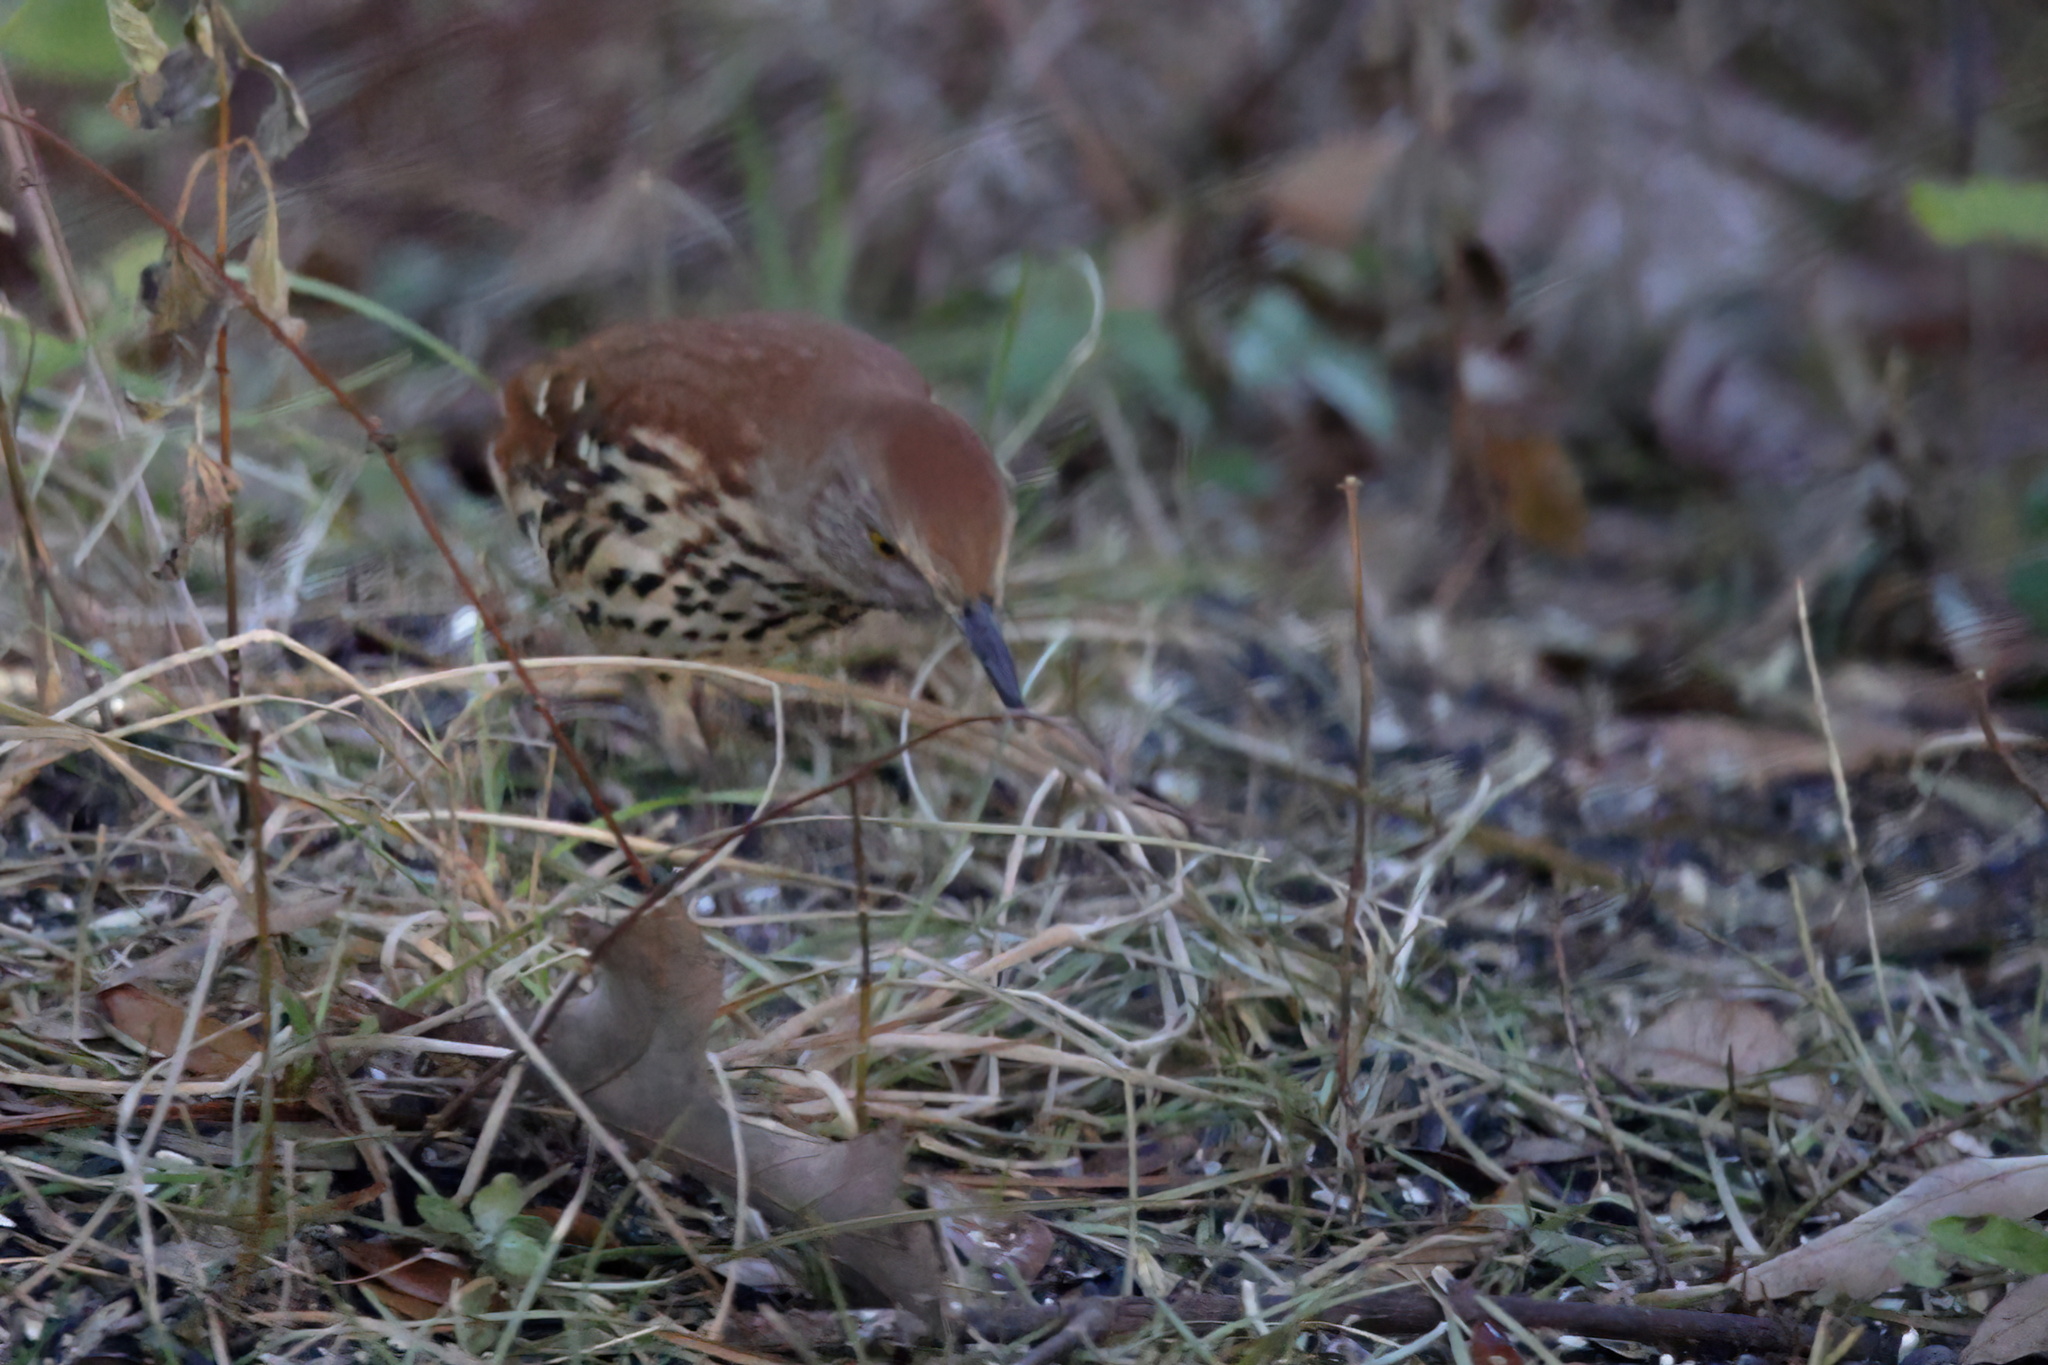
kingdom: Animalia
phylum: Chordata
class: Aves
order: Passeriformes
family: Mimidae
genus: Toxostoma
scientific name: Toxostoma rufum
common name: Brown thrasher
